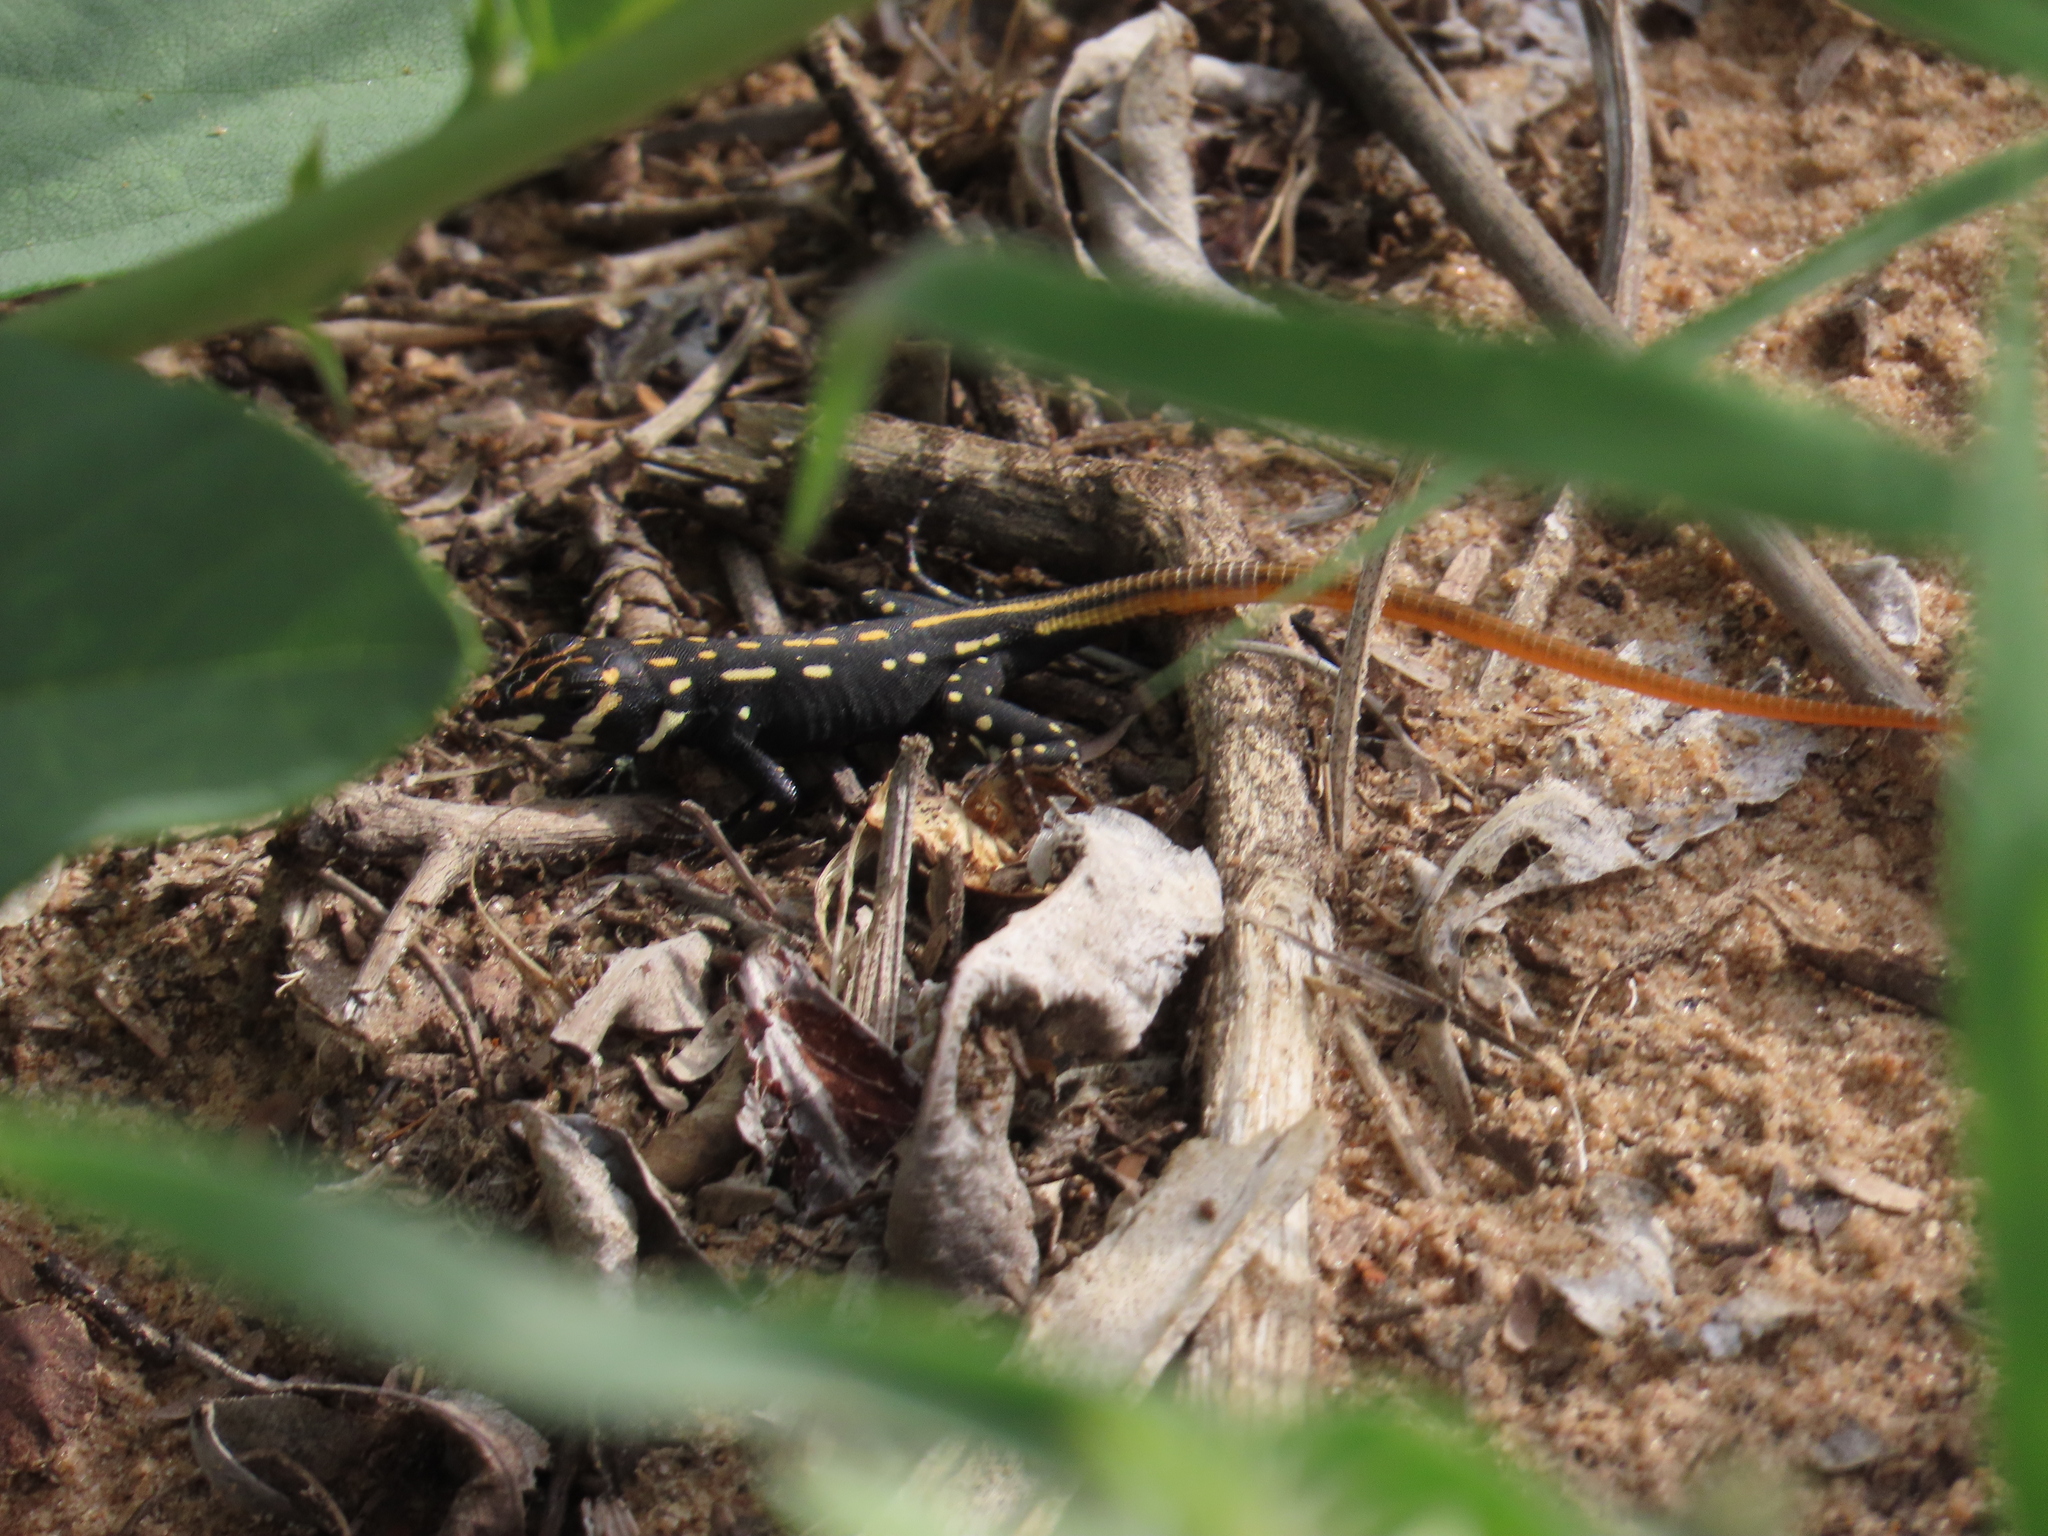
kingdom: Animalia
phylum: Chordata
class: Squamata
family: Lacertidae
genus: Heliobolus
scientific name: Heliobolus lugubris
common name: Bushveld lizard
